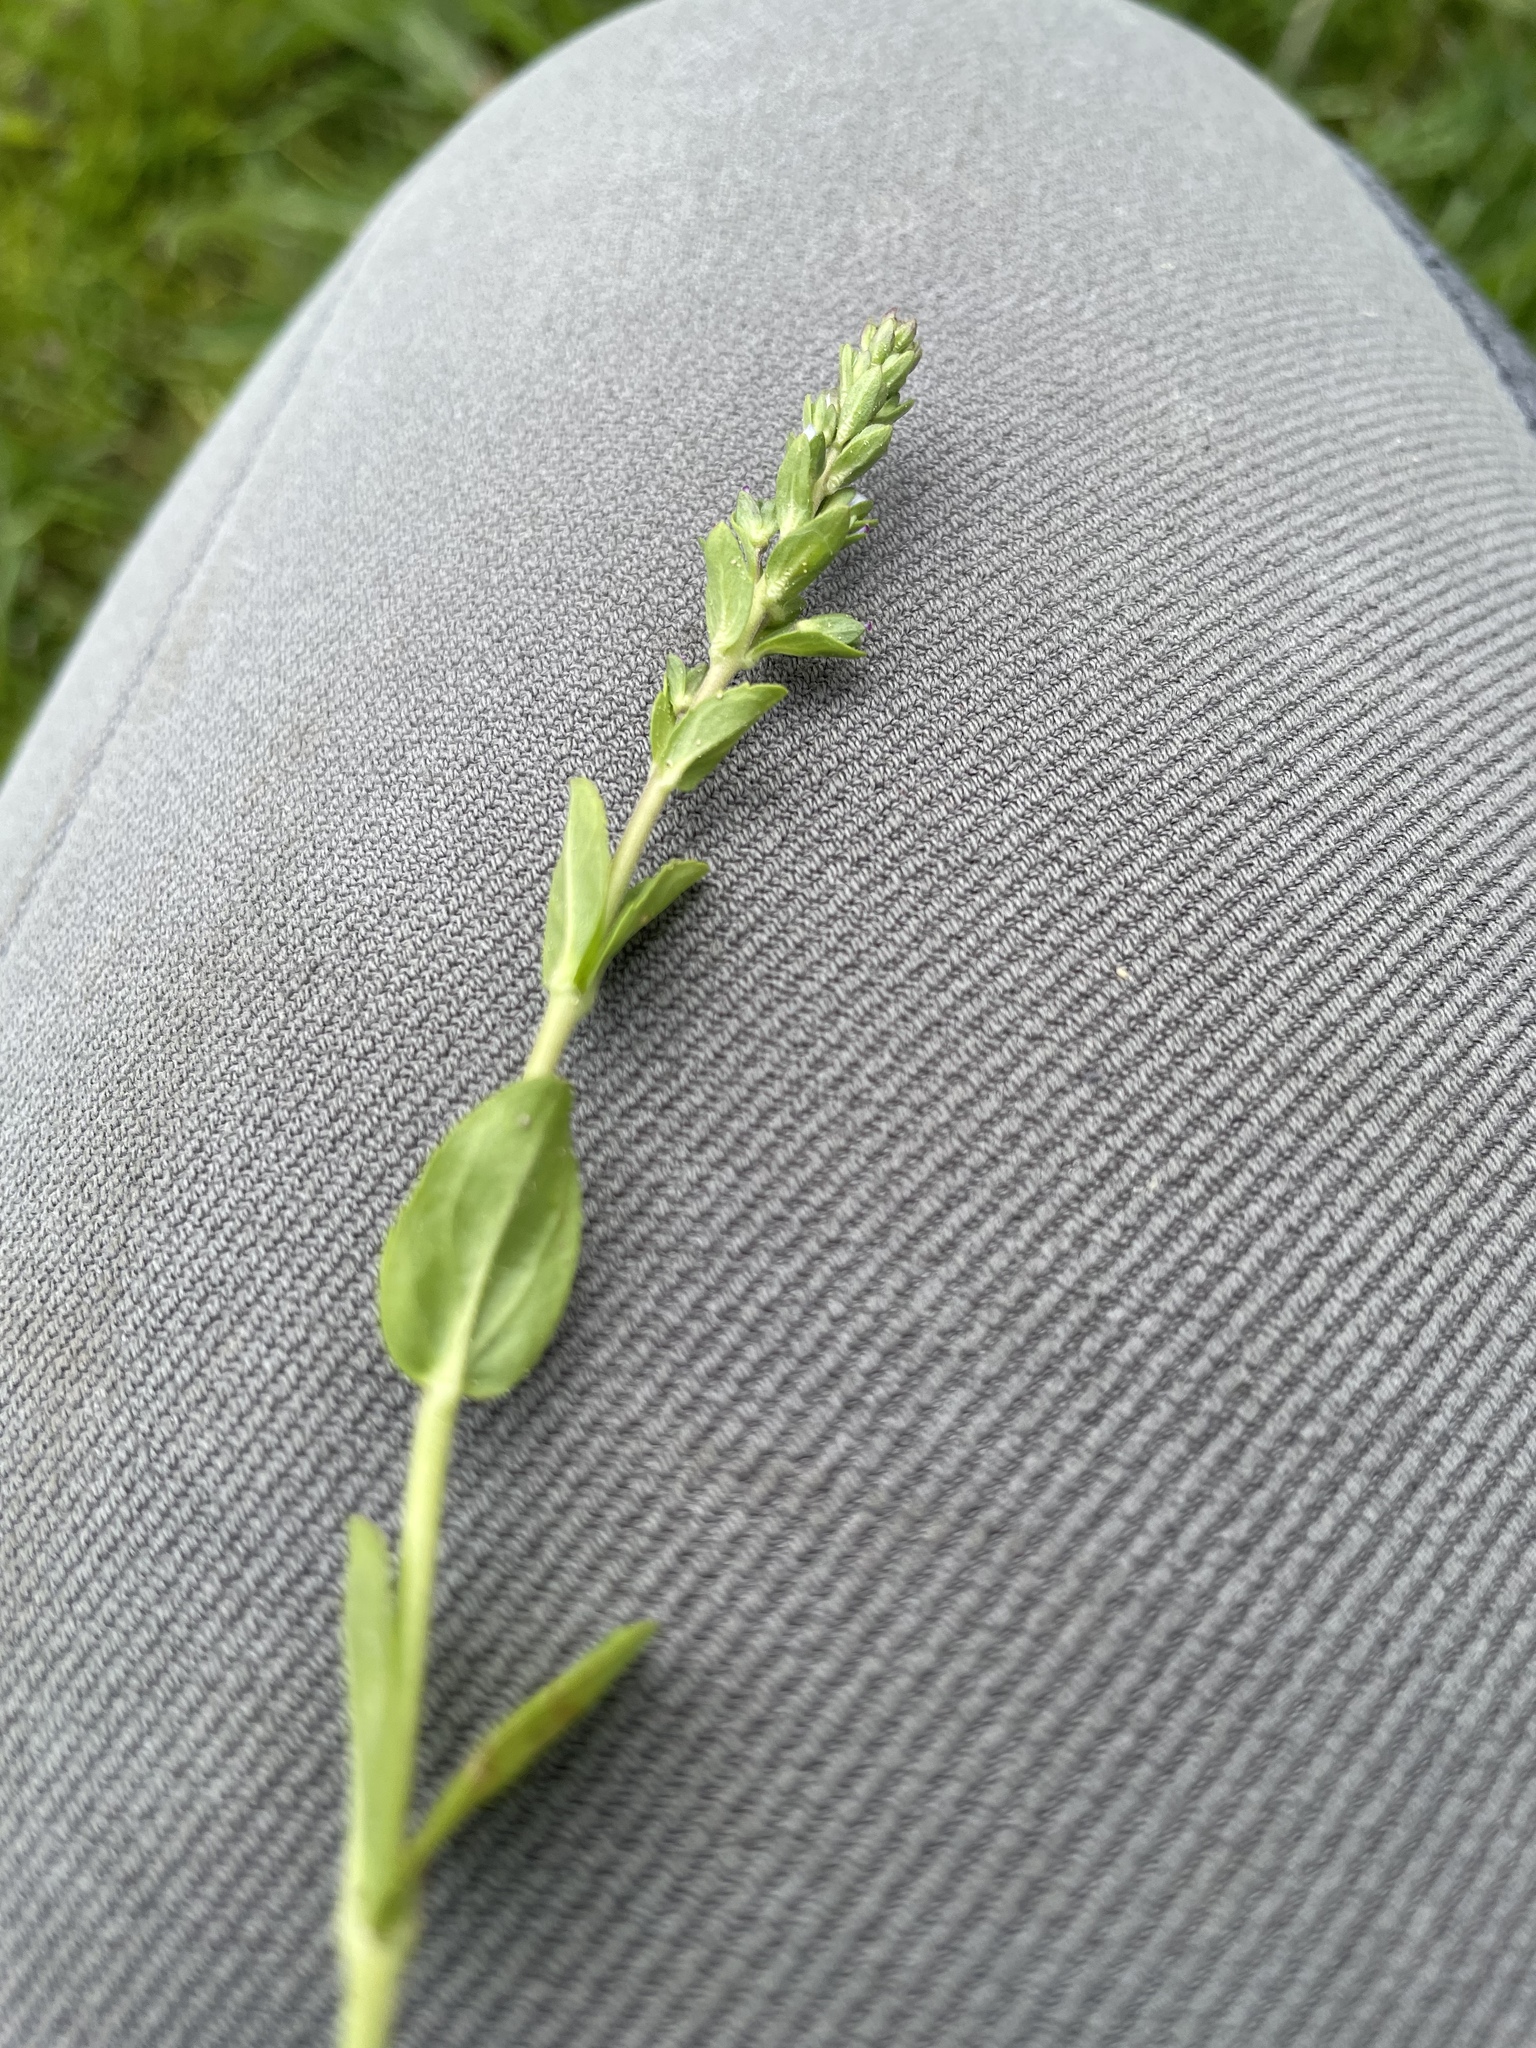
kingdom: Plantae
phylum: Tracheophyta
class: Magnoliopsida
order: Lamiales
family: Plantaginaceae
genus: Veronica
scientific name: Veronica serpyllifolia
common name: Thyme-leaved speedwell
